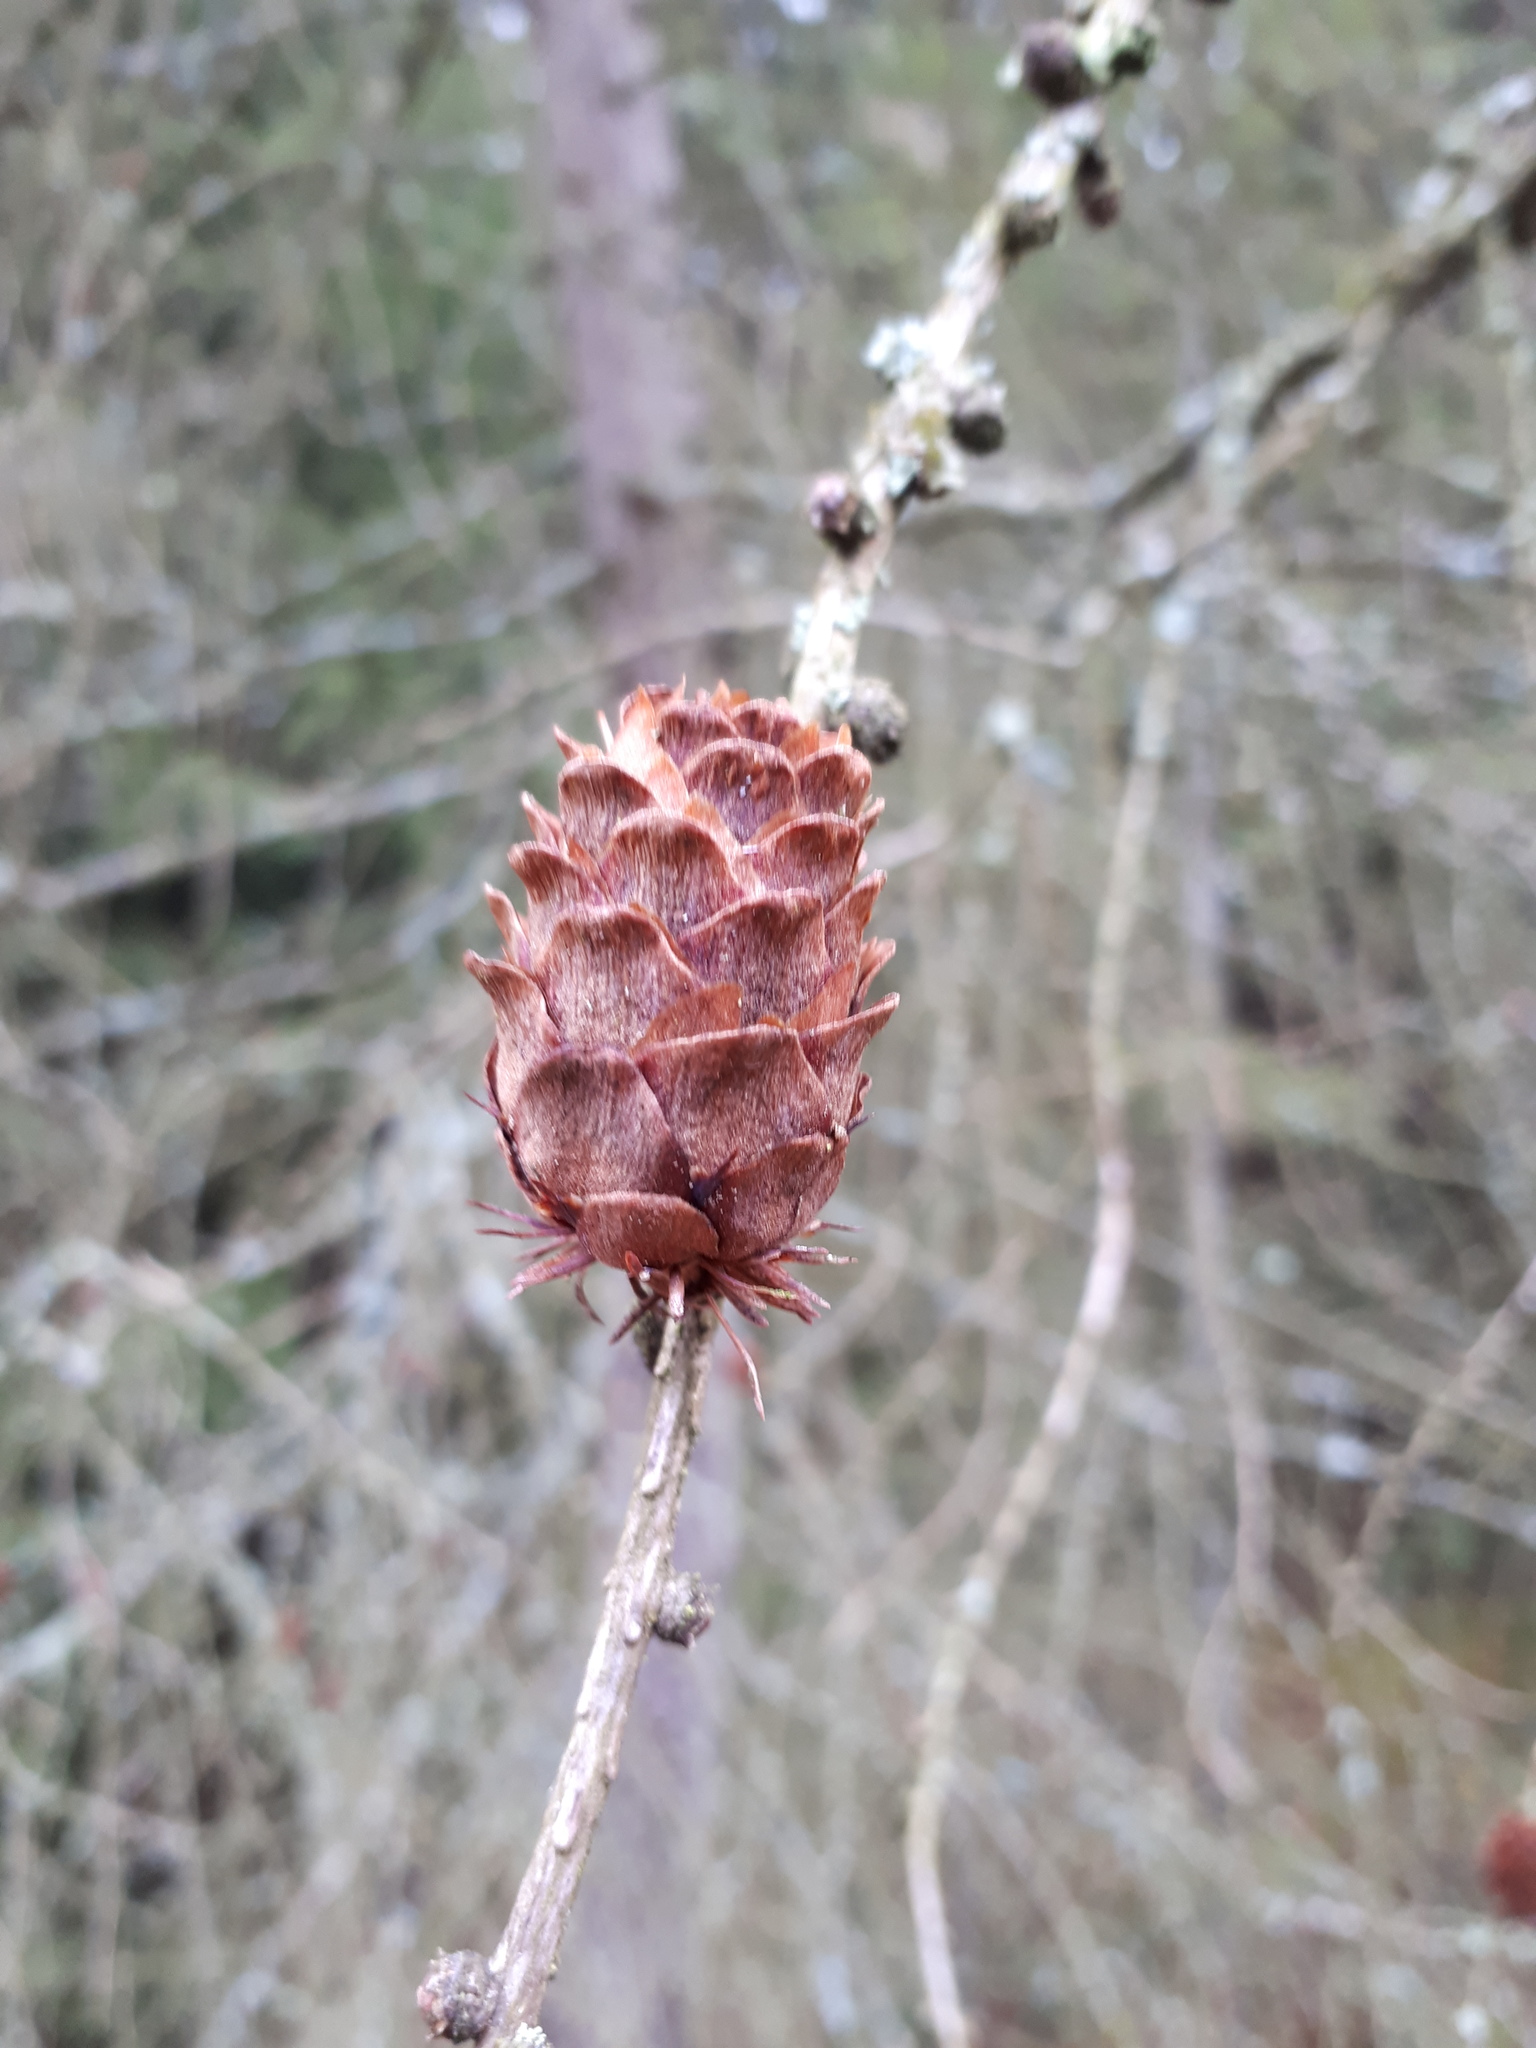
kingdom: Plantae
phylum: Tracheophyta
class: Pinopsida
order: Pinales
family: Pinaceae
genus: Larix
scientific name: Larix decidua
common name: European larch
